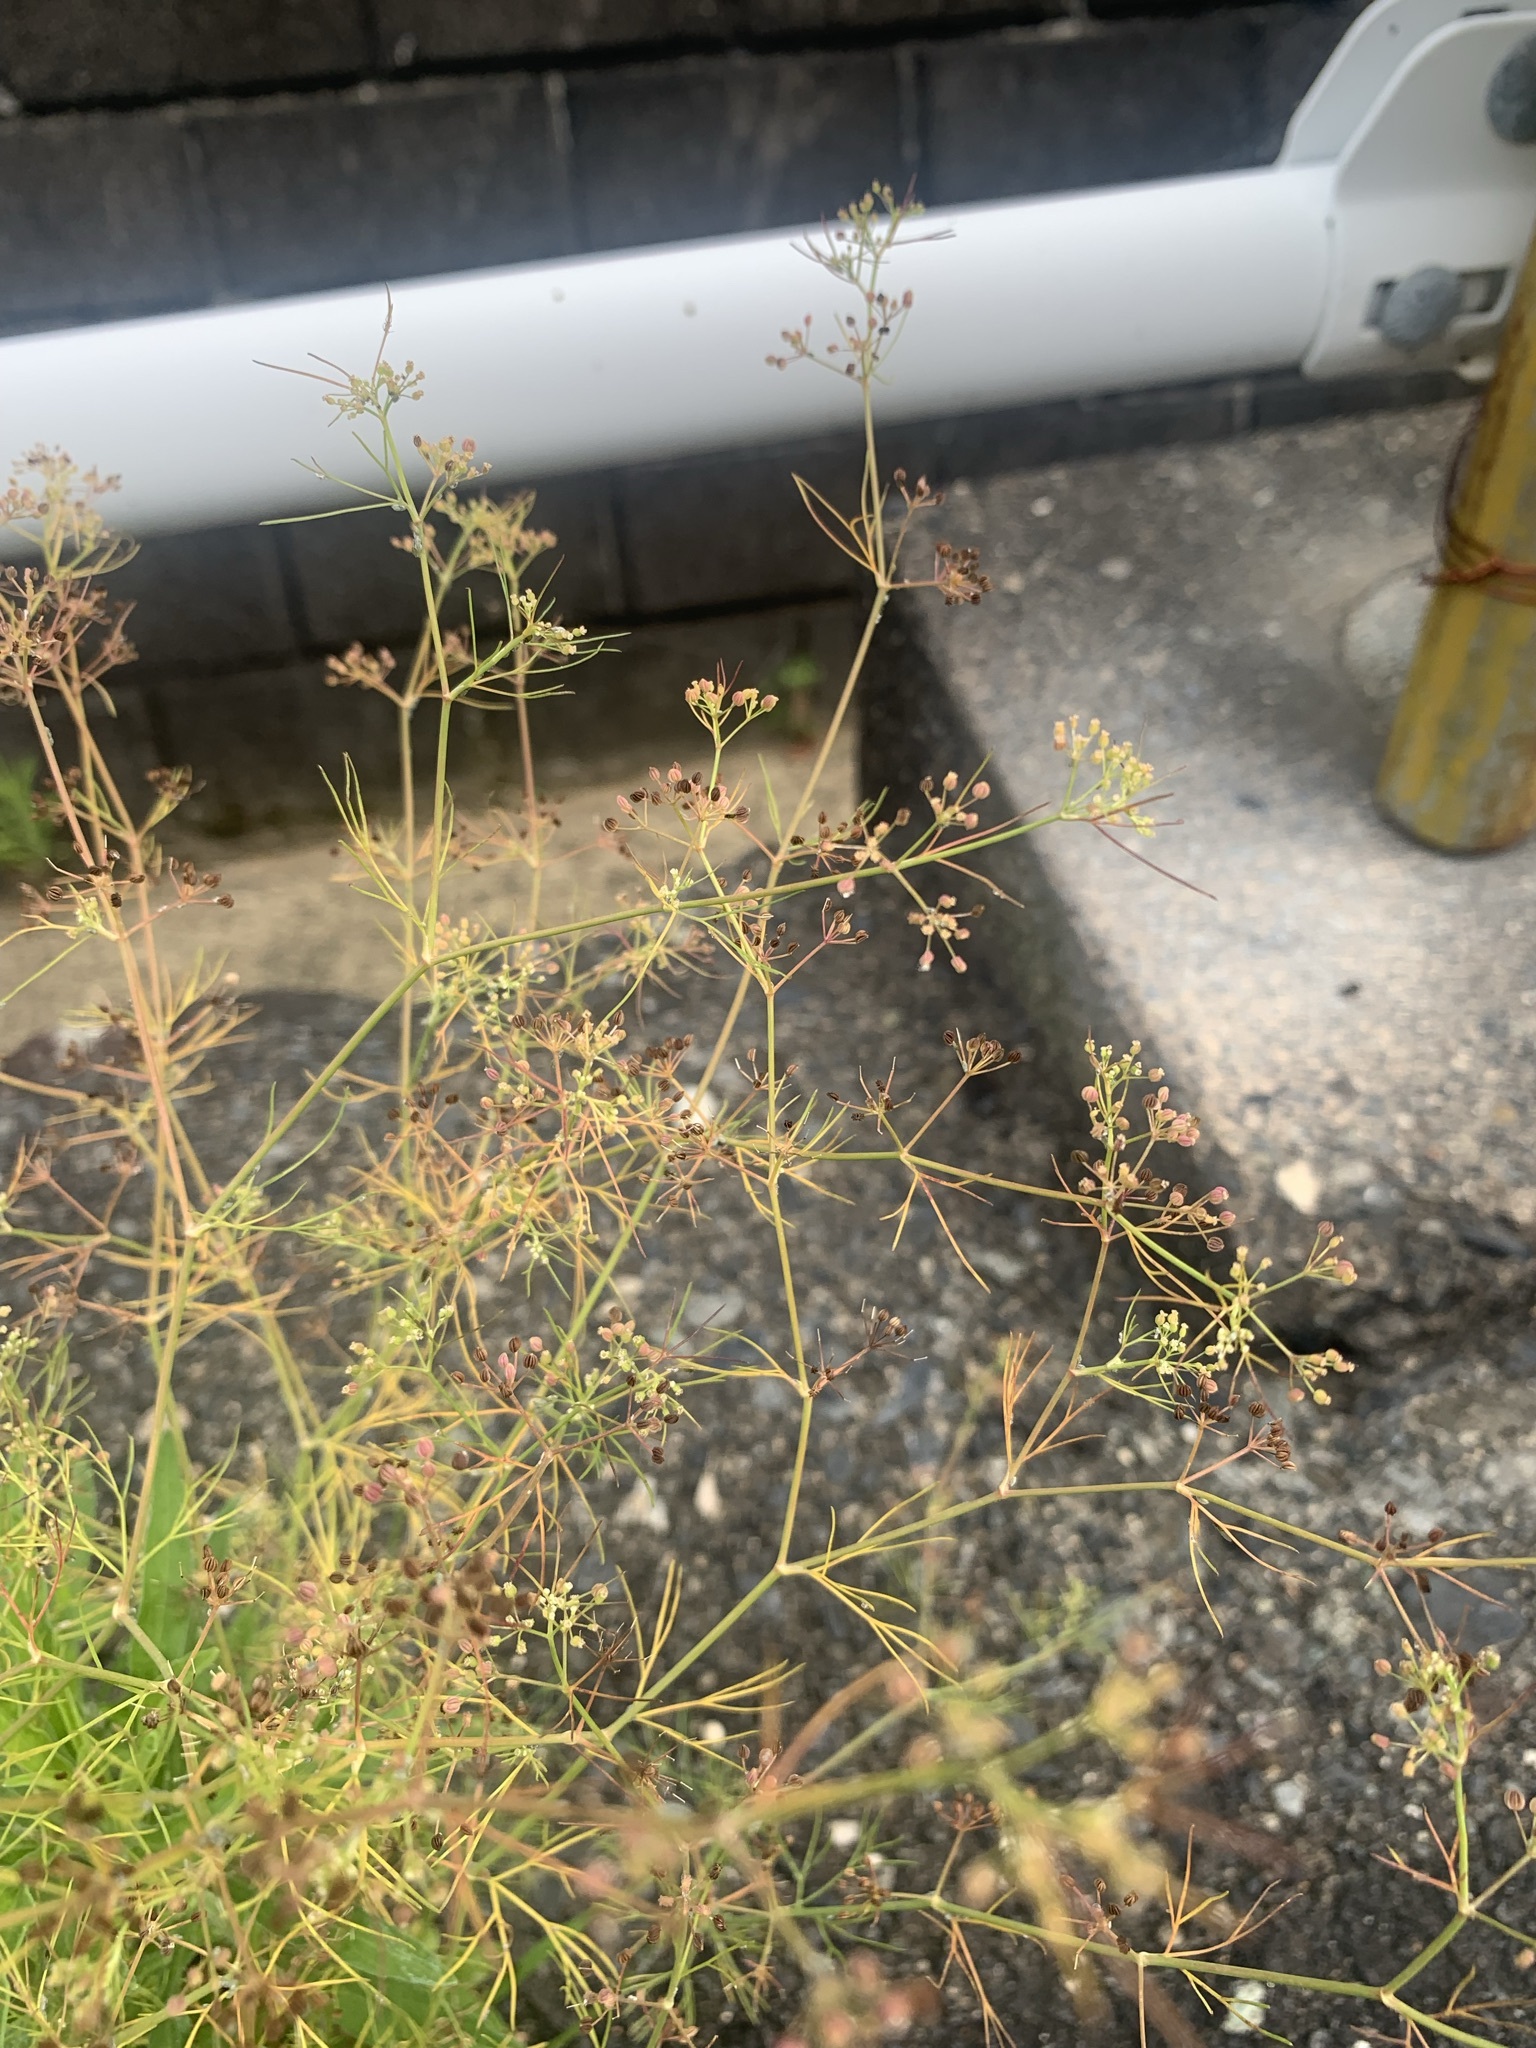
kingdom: Plantae
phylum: Tracheophyta
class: Magnoliopsida
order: Apiales
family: Apiaceae
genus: Cyclospermum
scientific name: Cyclospermum leptophyllum
